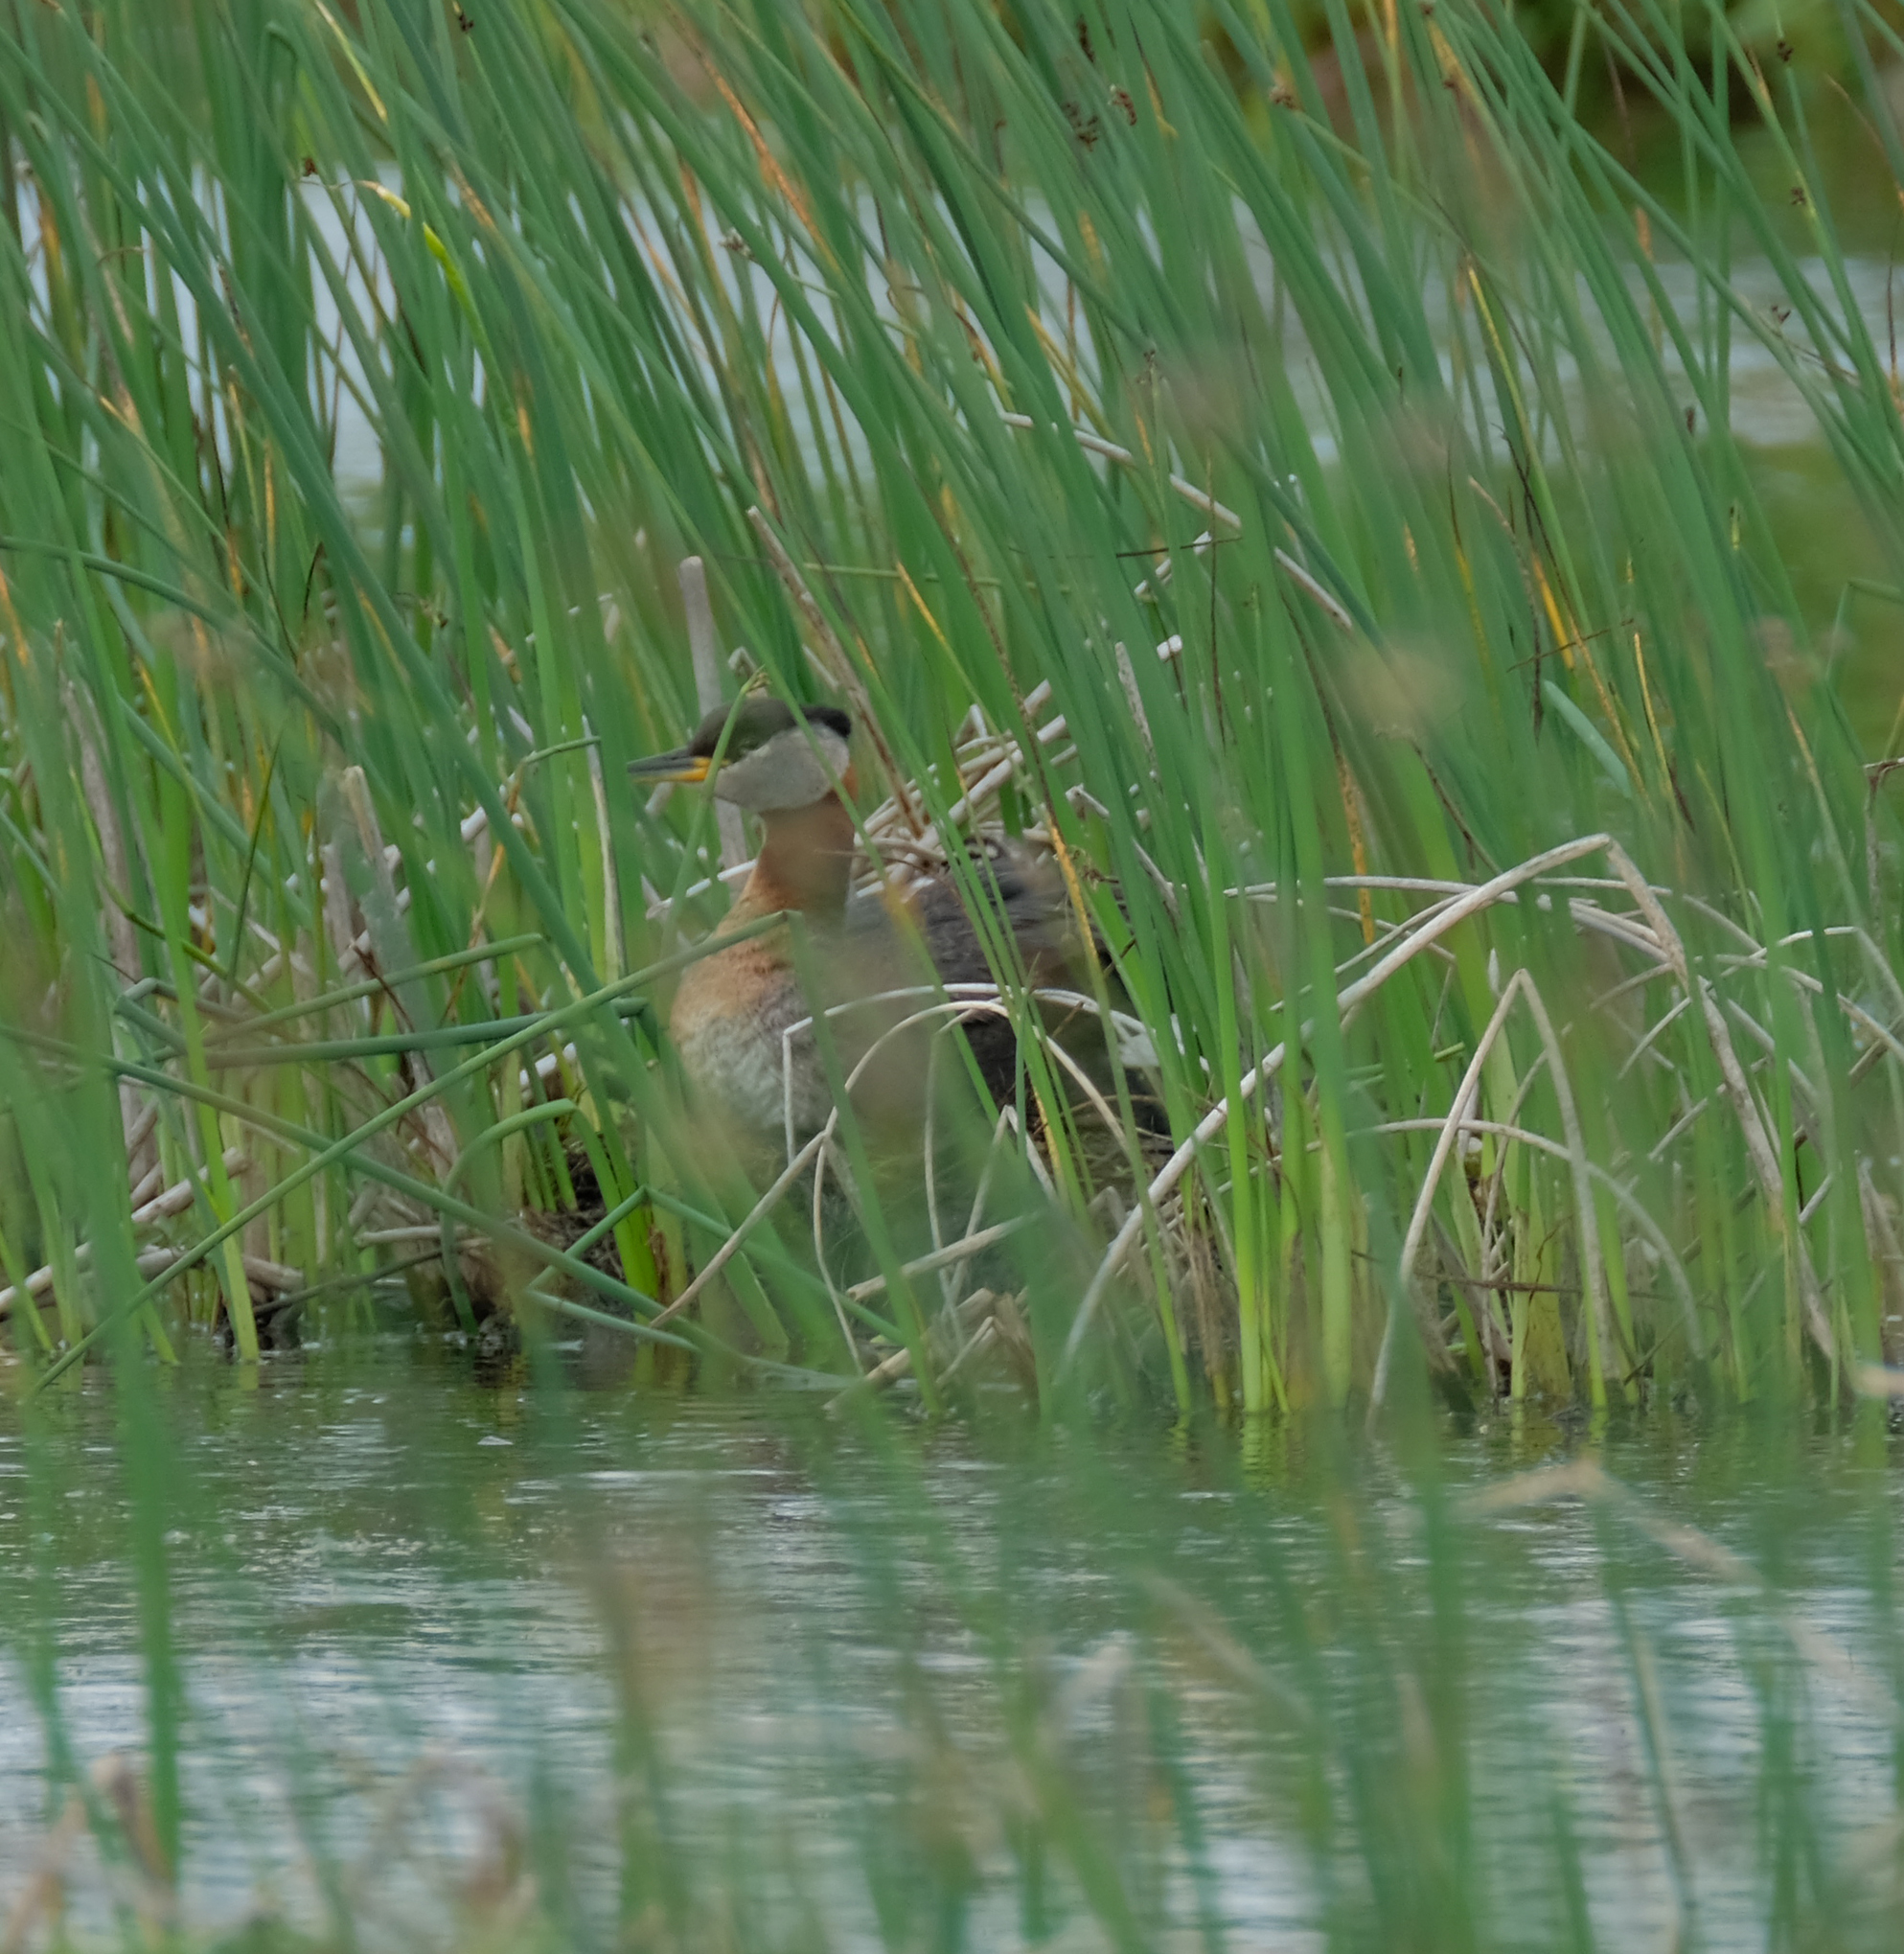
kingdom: Animalia
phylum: Chordata
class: Aves
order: Podicipediformes
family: Podicipedidae
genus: Podiceps
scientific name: Podiceps grisegena
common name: Red-necked grebe
